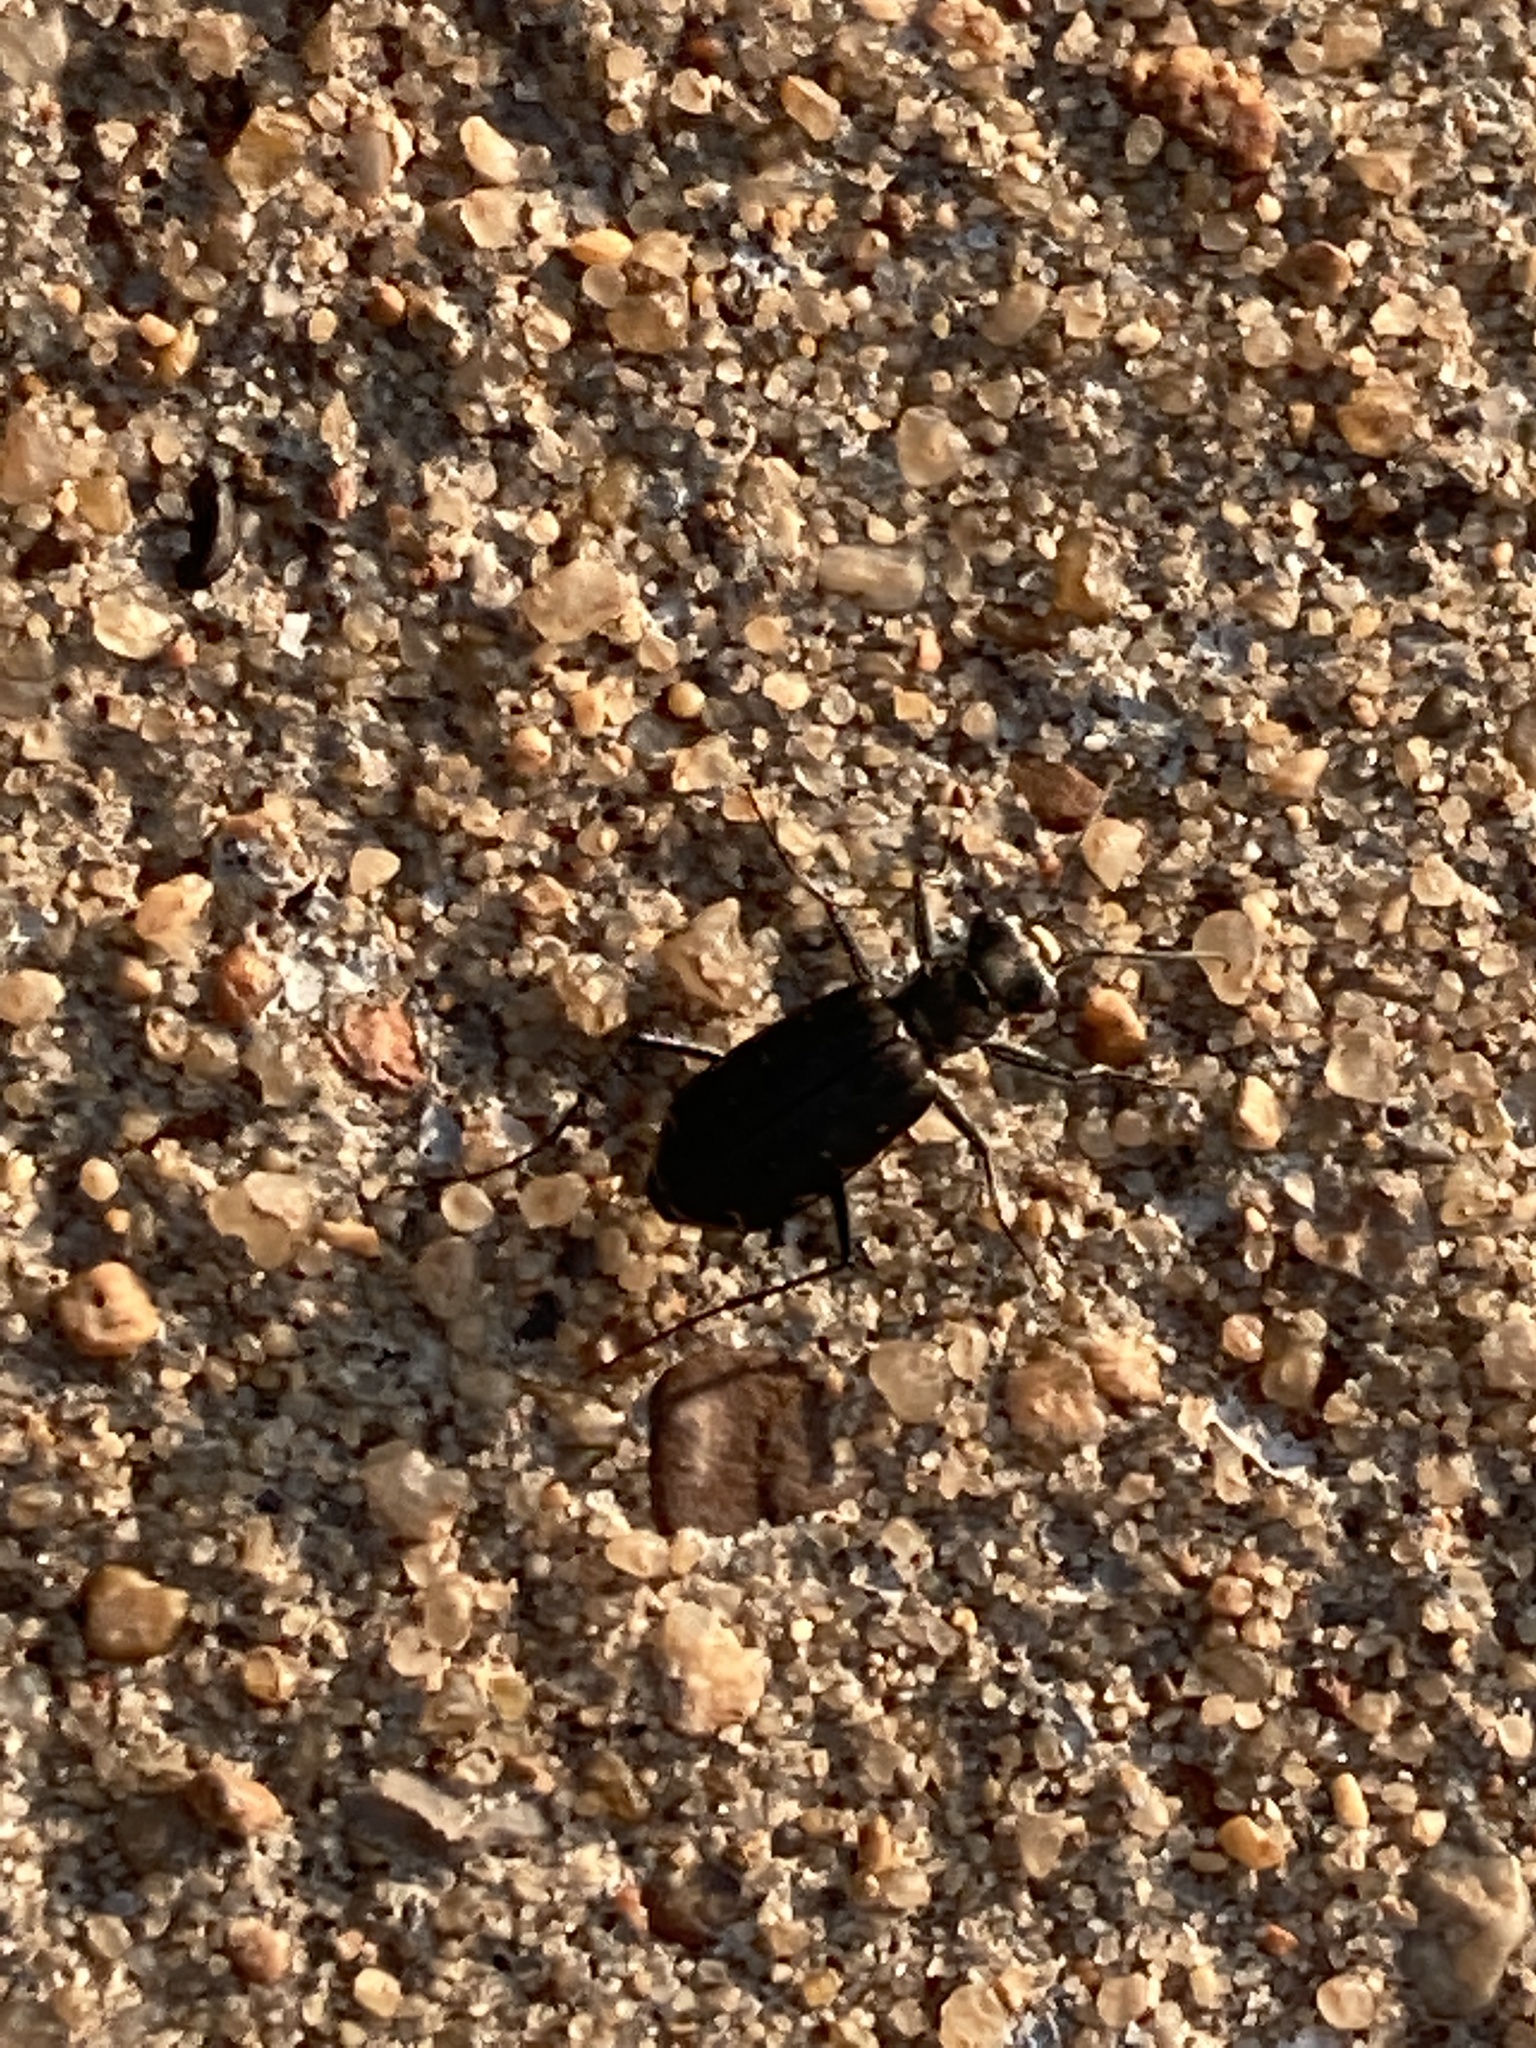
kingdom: Animalia
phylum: Arthropoda
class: Insecta
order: Coleoptera
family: Carabidae
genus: Cicindela
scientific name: Cicindela punctulata
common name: Punctured tiger beetle
